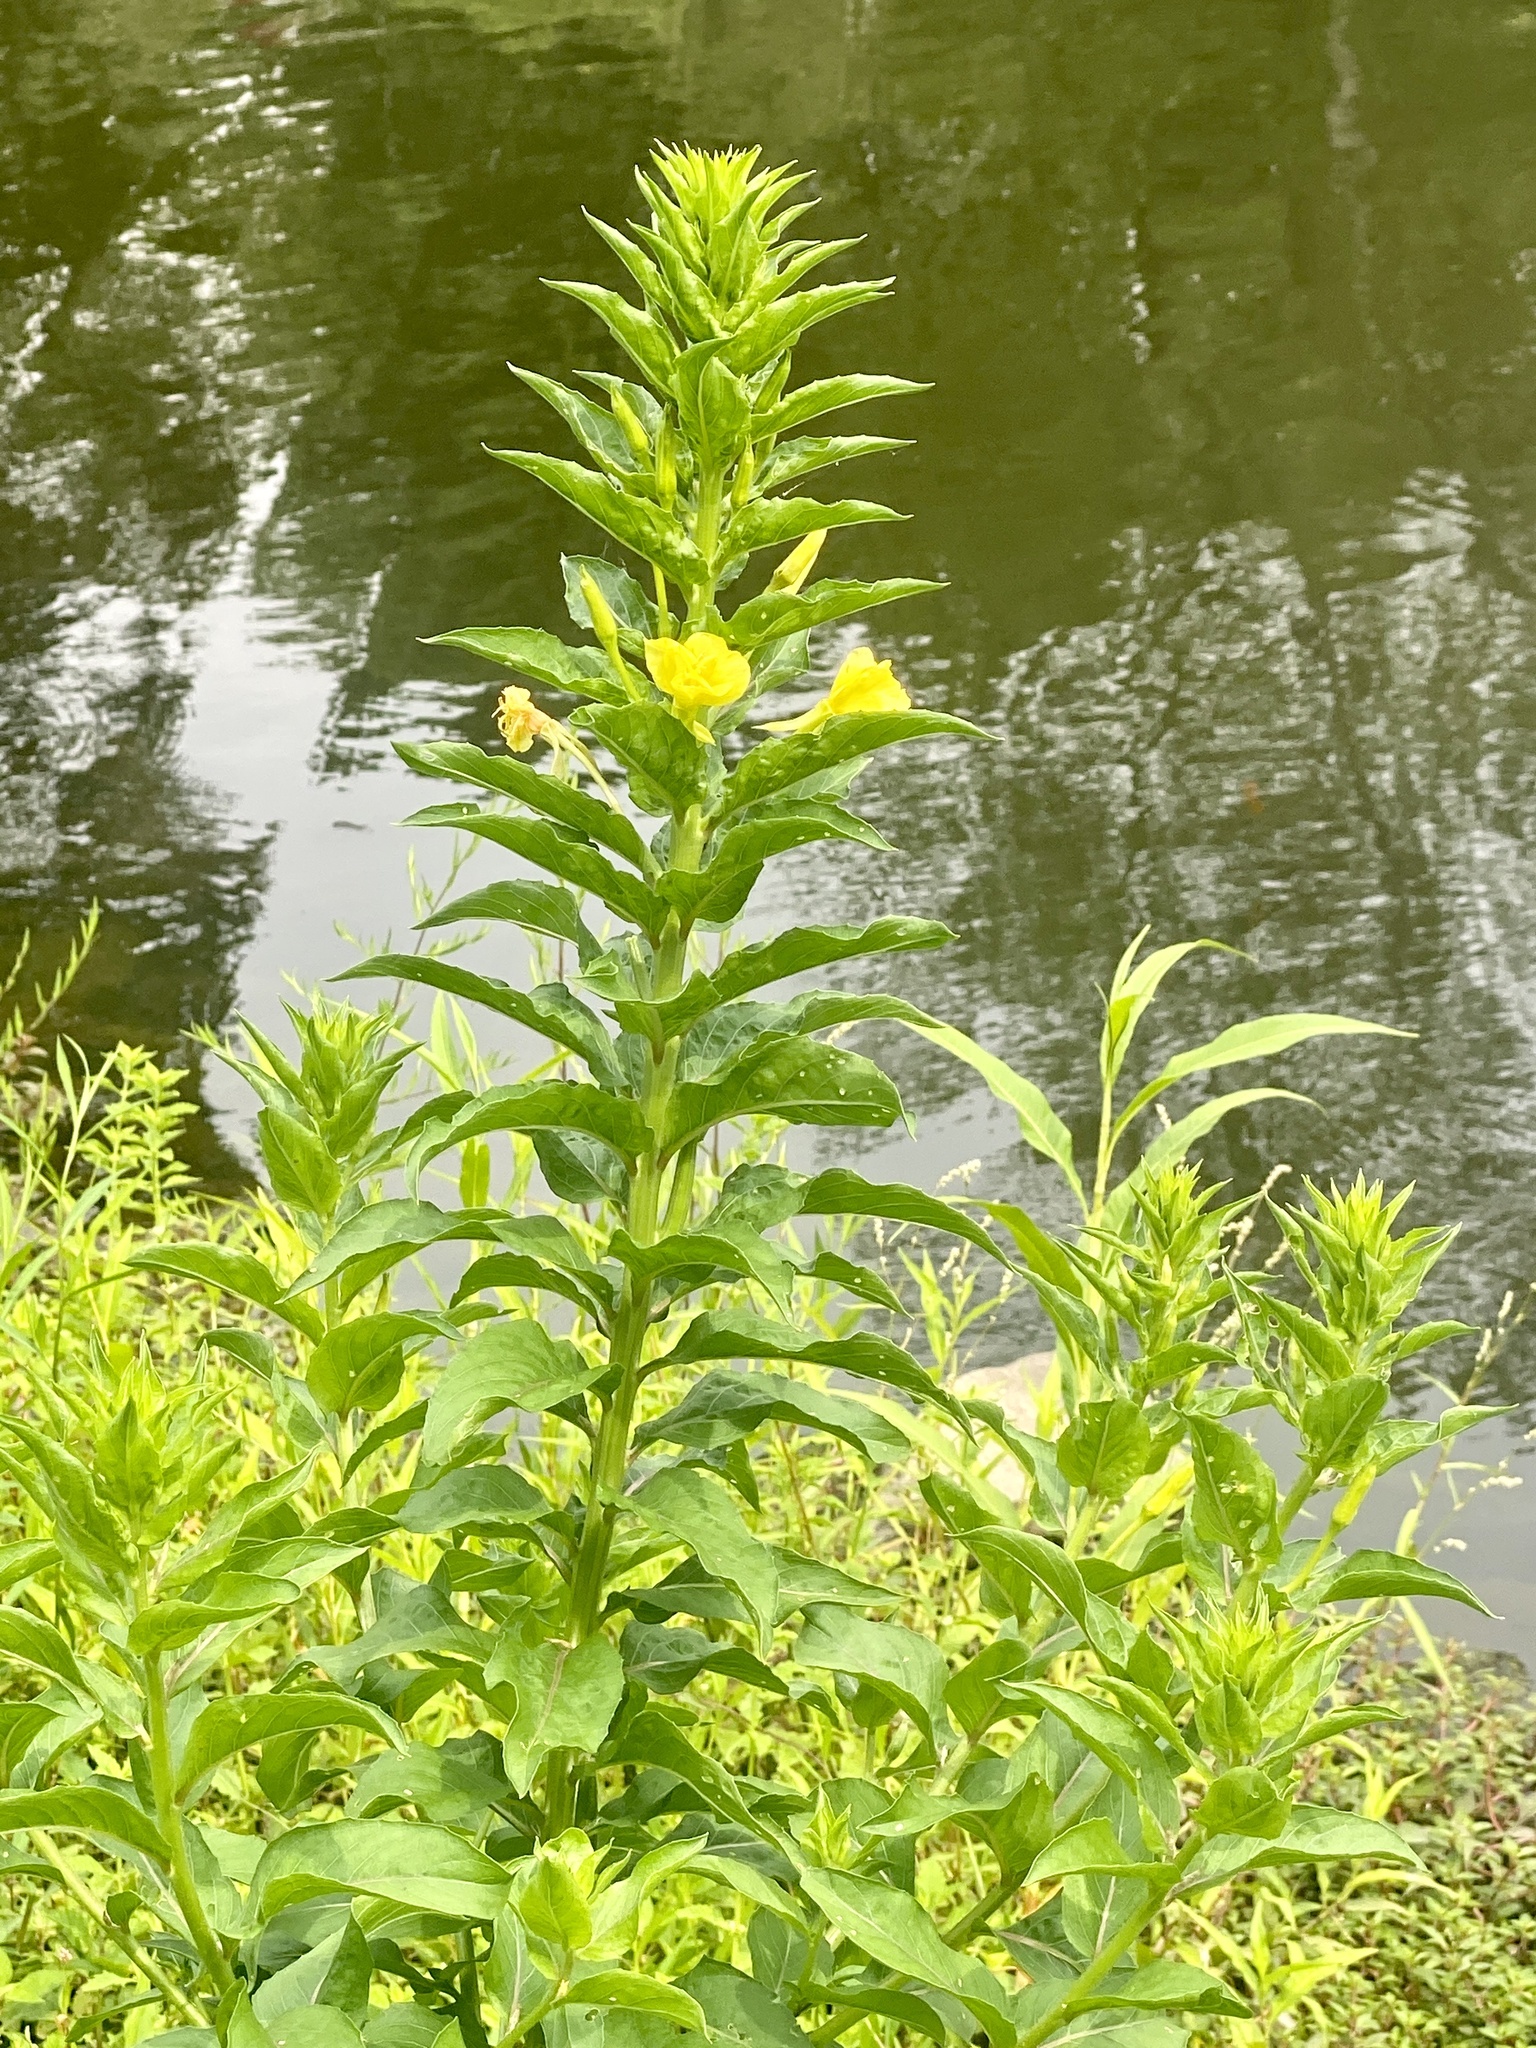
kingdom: Plantae
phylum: Tracheophyta
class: Magnoliopsida
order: Myrtales
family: Onagraceae
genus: Oenothera
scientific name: Oenothera biennis
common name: Common evening-primrose
